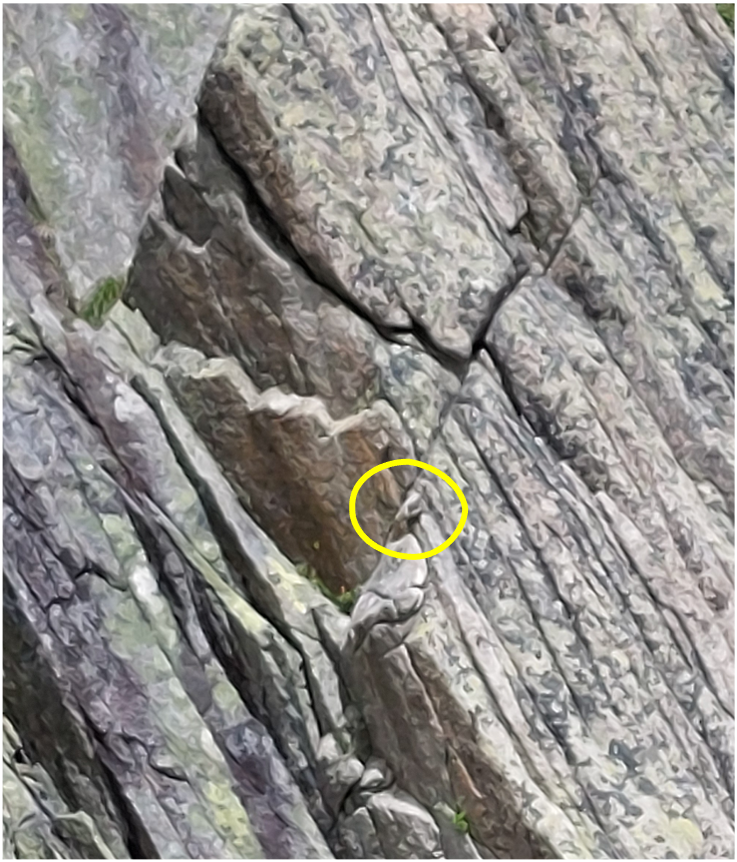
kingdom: Animalia
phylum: Chordata
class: Aves
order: Passeriformes
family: Tichodromidae
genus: Tichodroma
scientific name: Tichodroma muraria
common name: Wallcreeper
